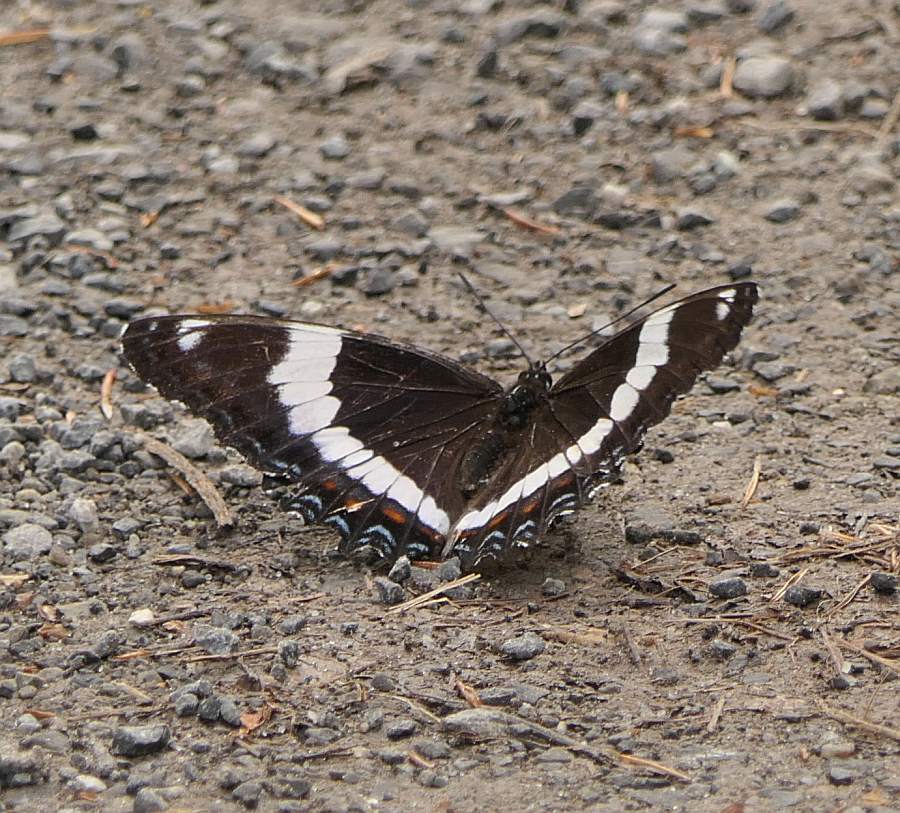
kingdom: Animalia
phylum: Arthropoda
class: Insecta
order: Lepidoptera
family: Nymphalidae
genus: Limenitis
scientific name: Limenitis arthemis
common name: Red-spotted admiral
